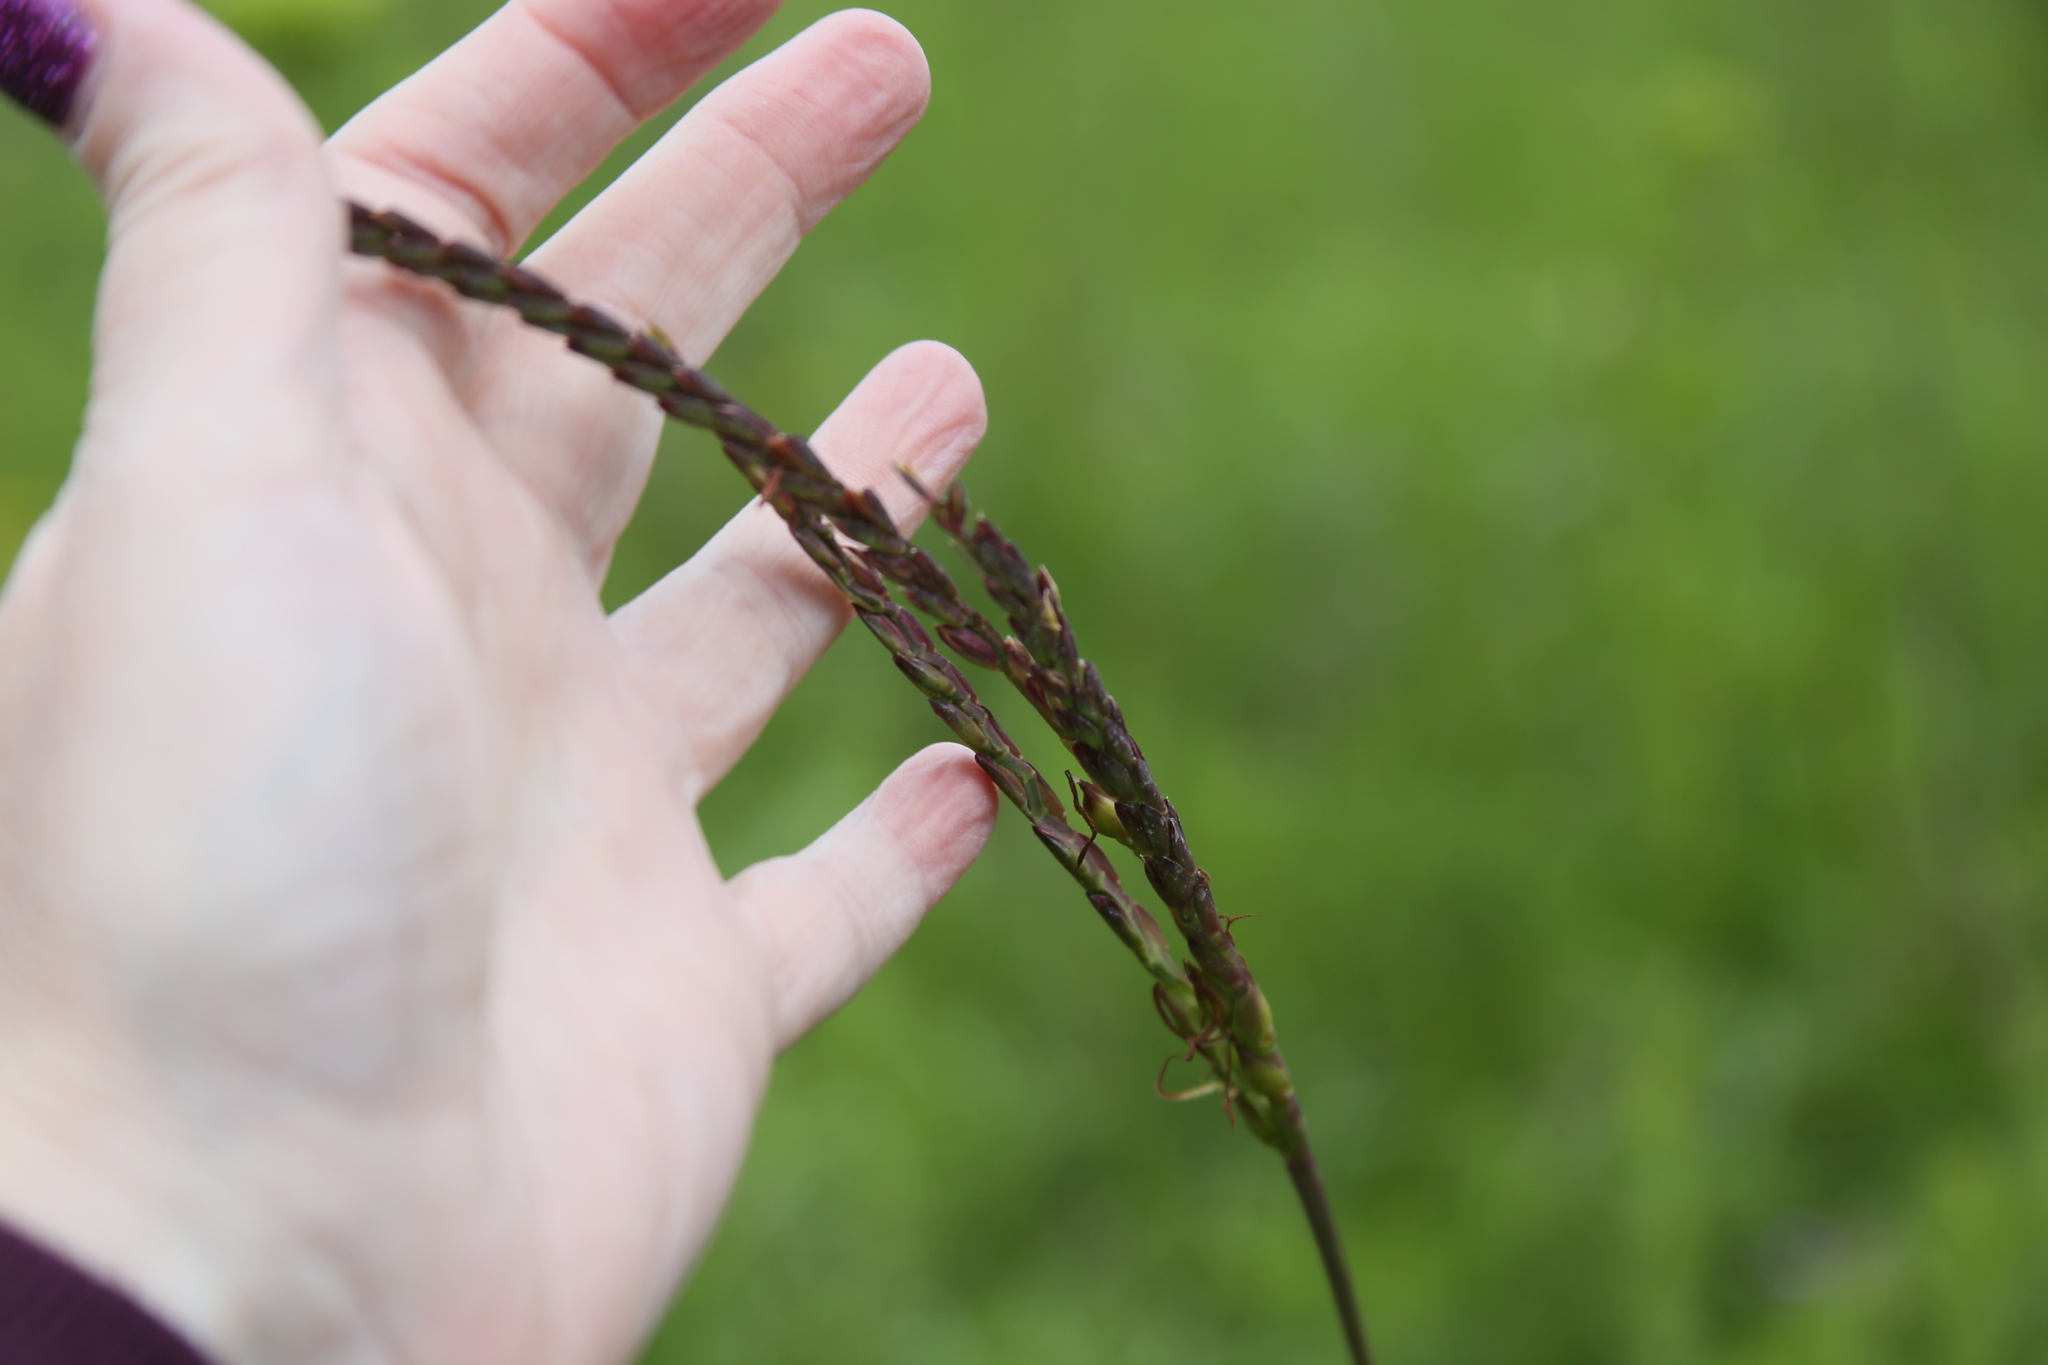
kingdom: Plantae
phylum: Tracheophyta
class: Liliopsida
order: Poales
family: Poaceae
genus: Tripsacum
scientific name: Tripsacum dactyloides
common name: Buffalo-grass
